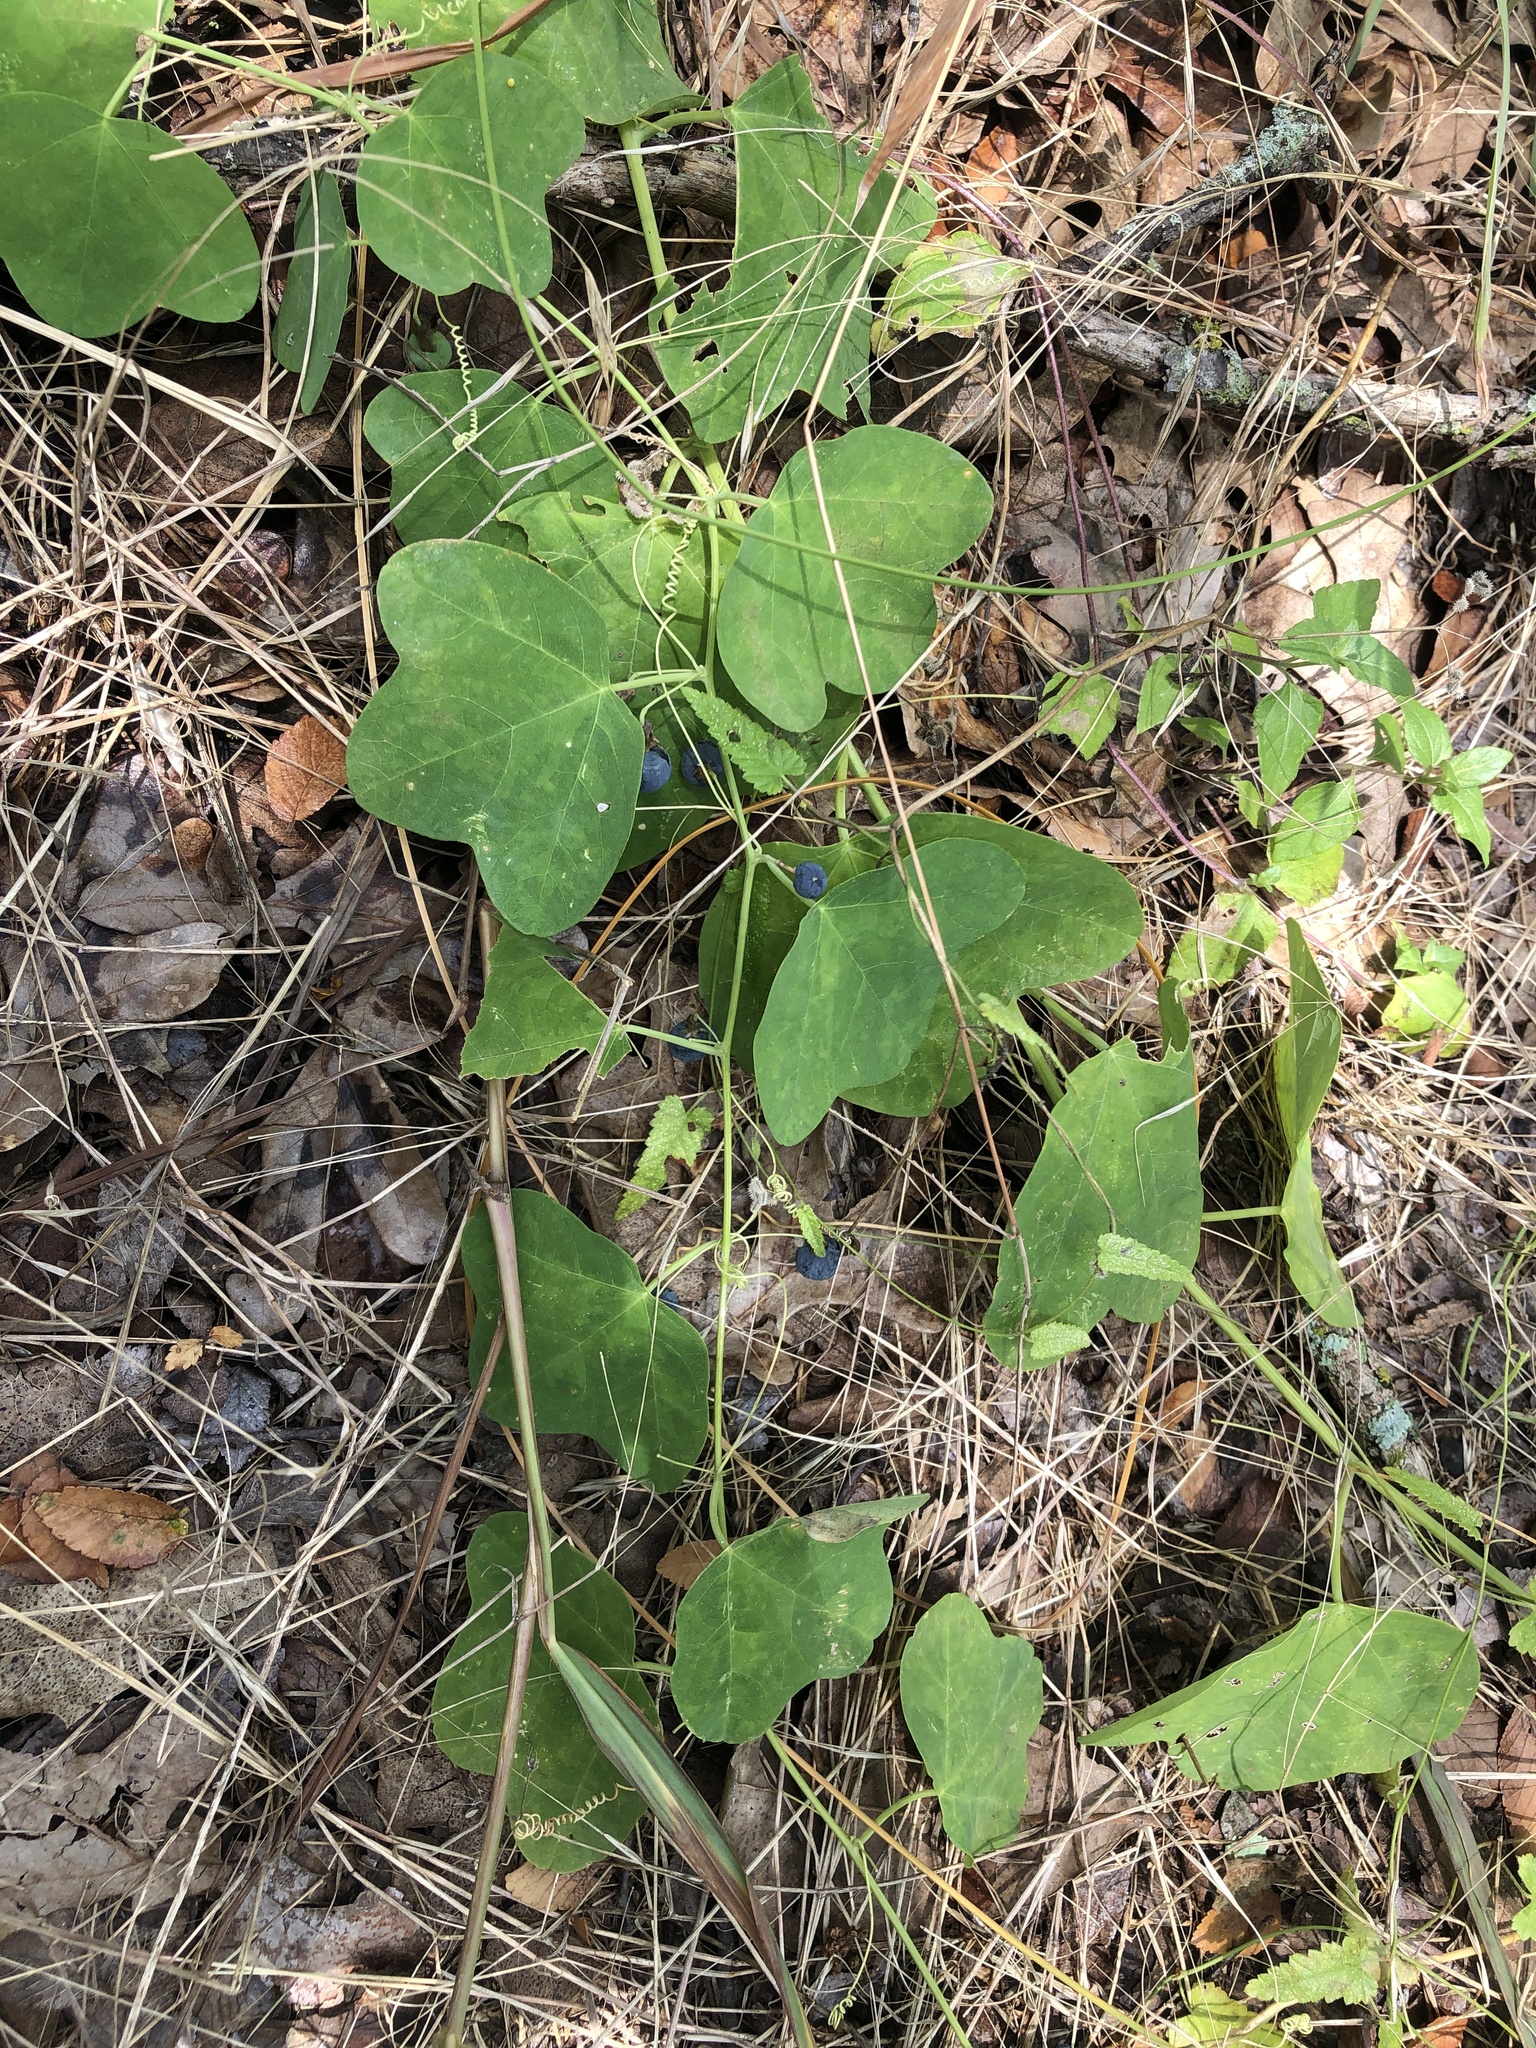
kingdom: Plantae
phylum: Tracheophyta
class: Magnoliopsida
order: Malpighiales
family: Passifloraceae
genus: Passiflora
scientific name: Passiflora lutea
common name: Yellow passionflower
